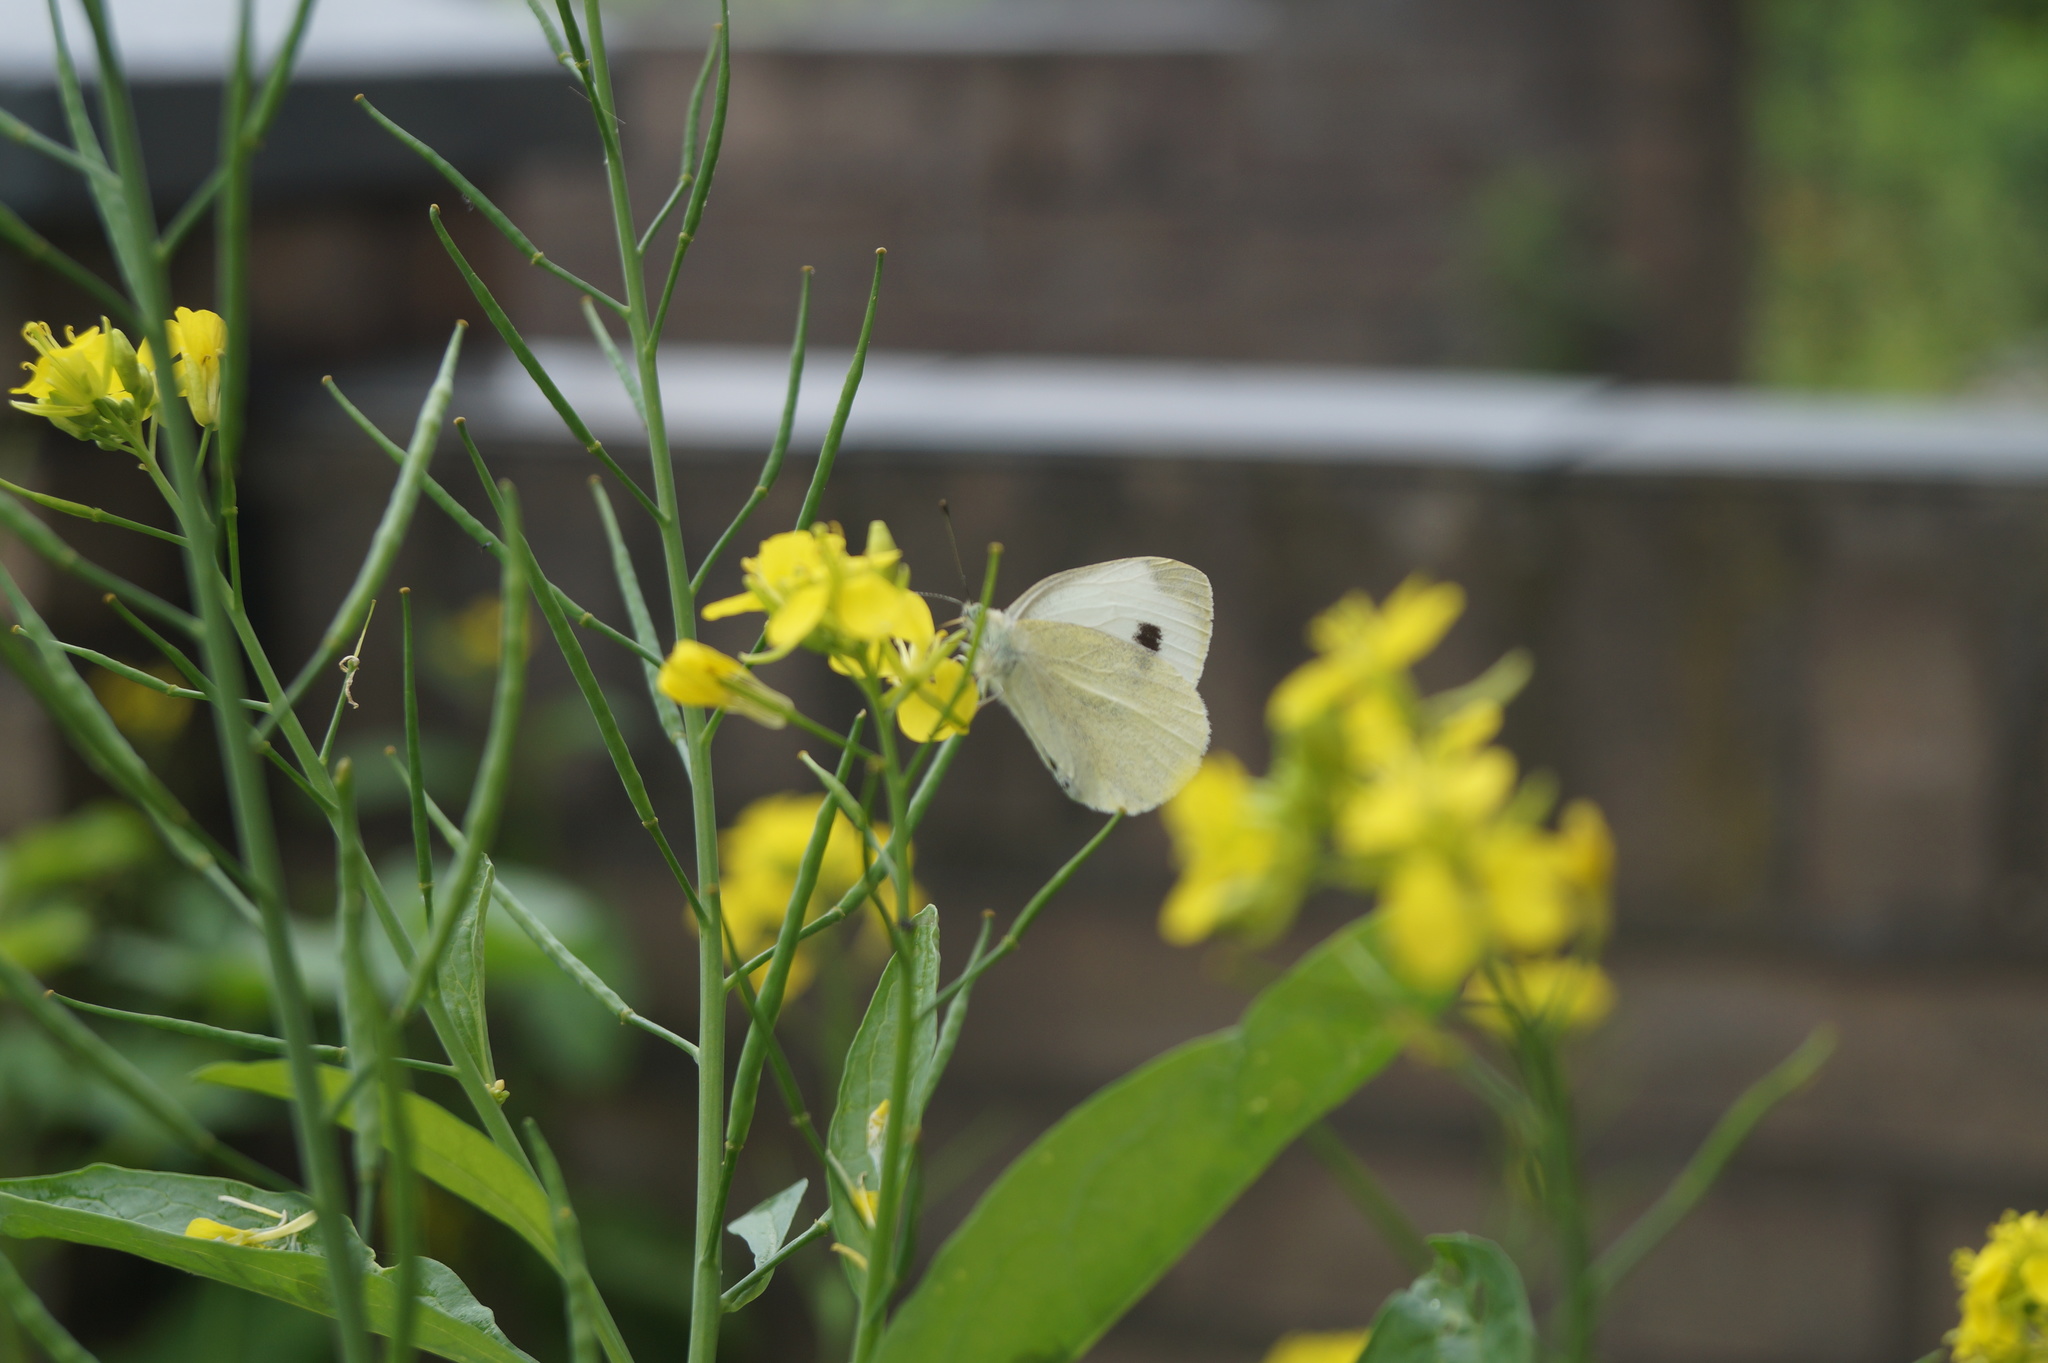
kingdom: Animalia
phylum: Arthropoda
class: Insecta
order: Lepidoptera
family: Pieridae
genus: Pieris
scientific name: Pieris mannii
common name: Southern small white
